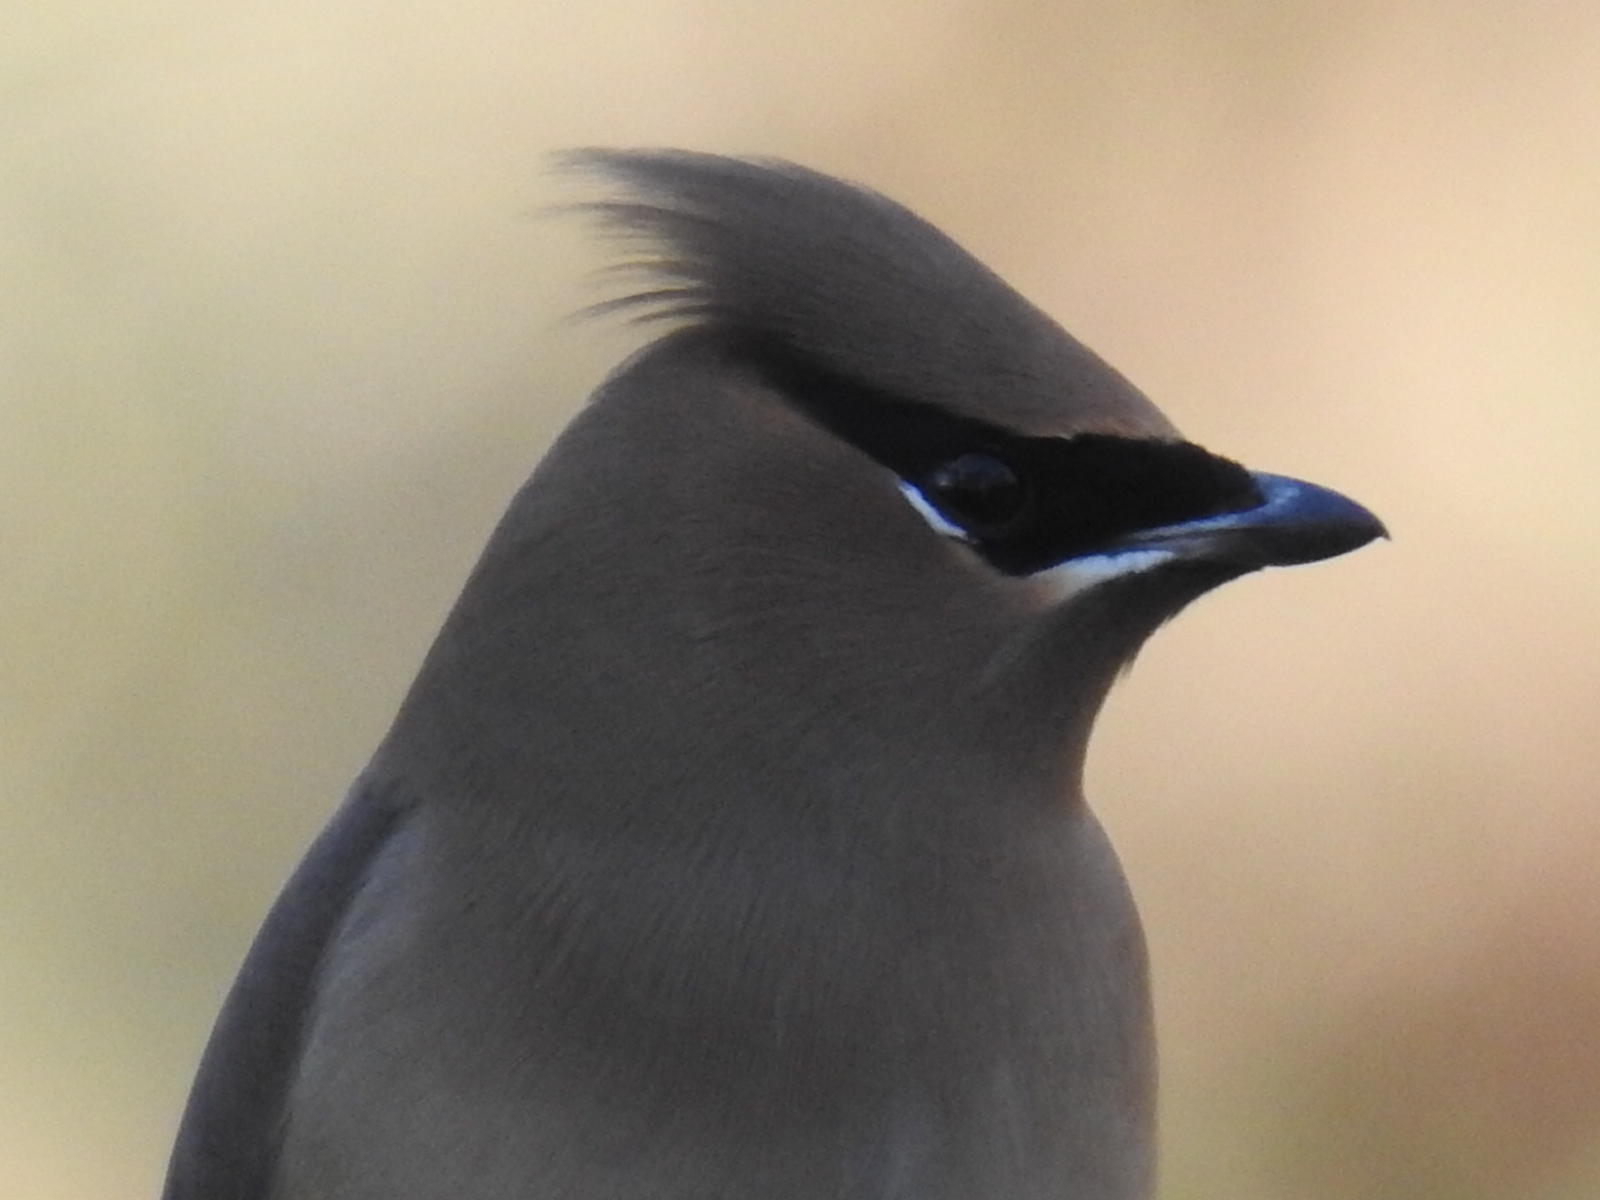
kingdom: Animalia
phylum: Chordata
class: Aves
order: Passeriformes
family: Bombycillidae
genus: Bombycilla
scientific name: Bombycilla cedrorum
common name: Cedar waxwing
